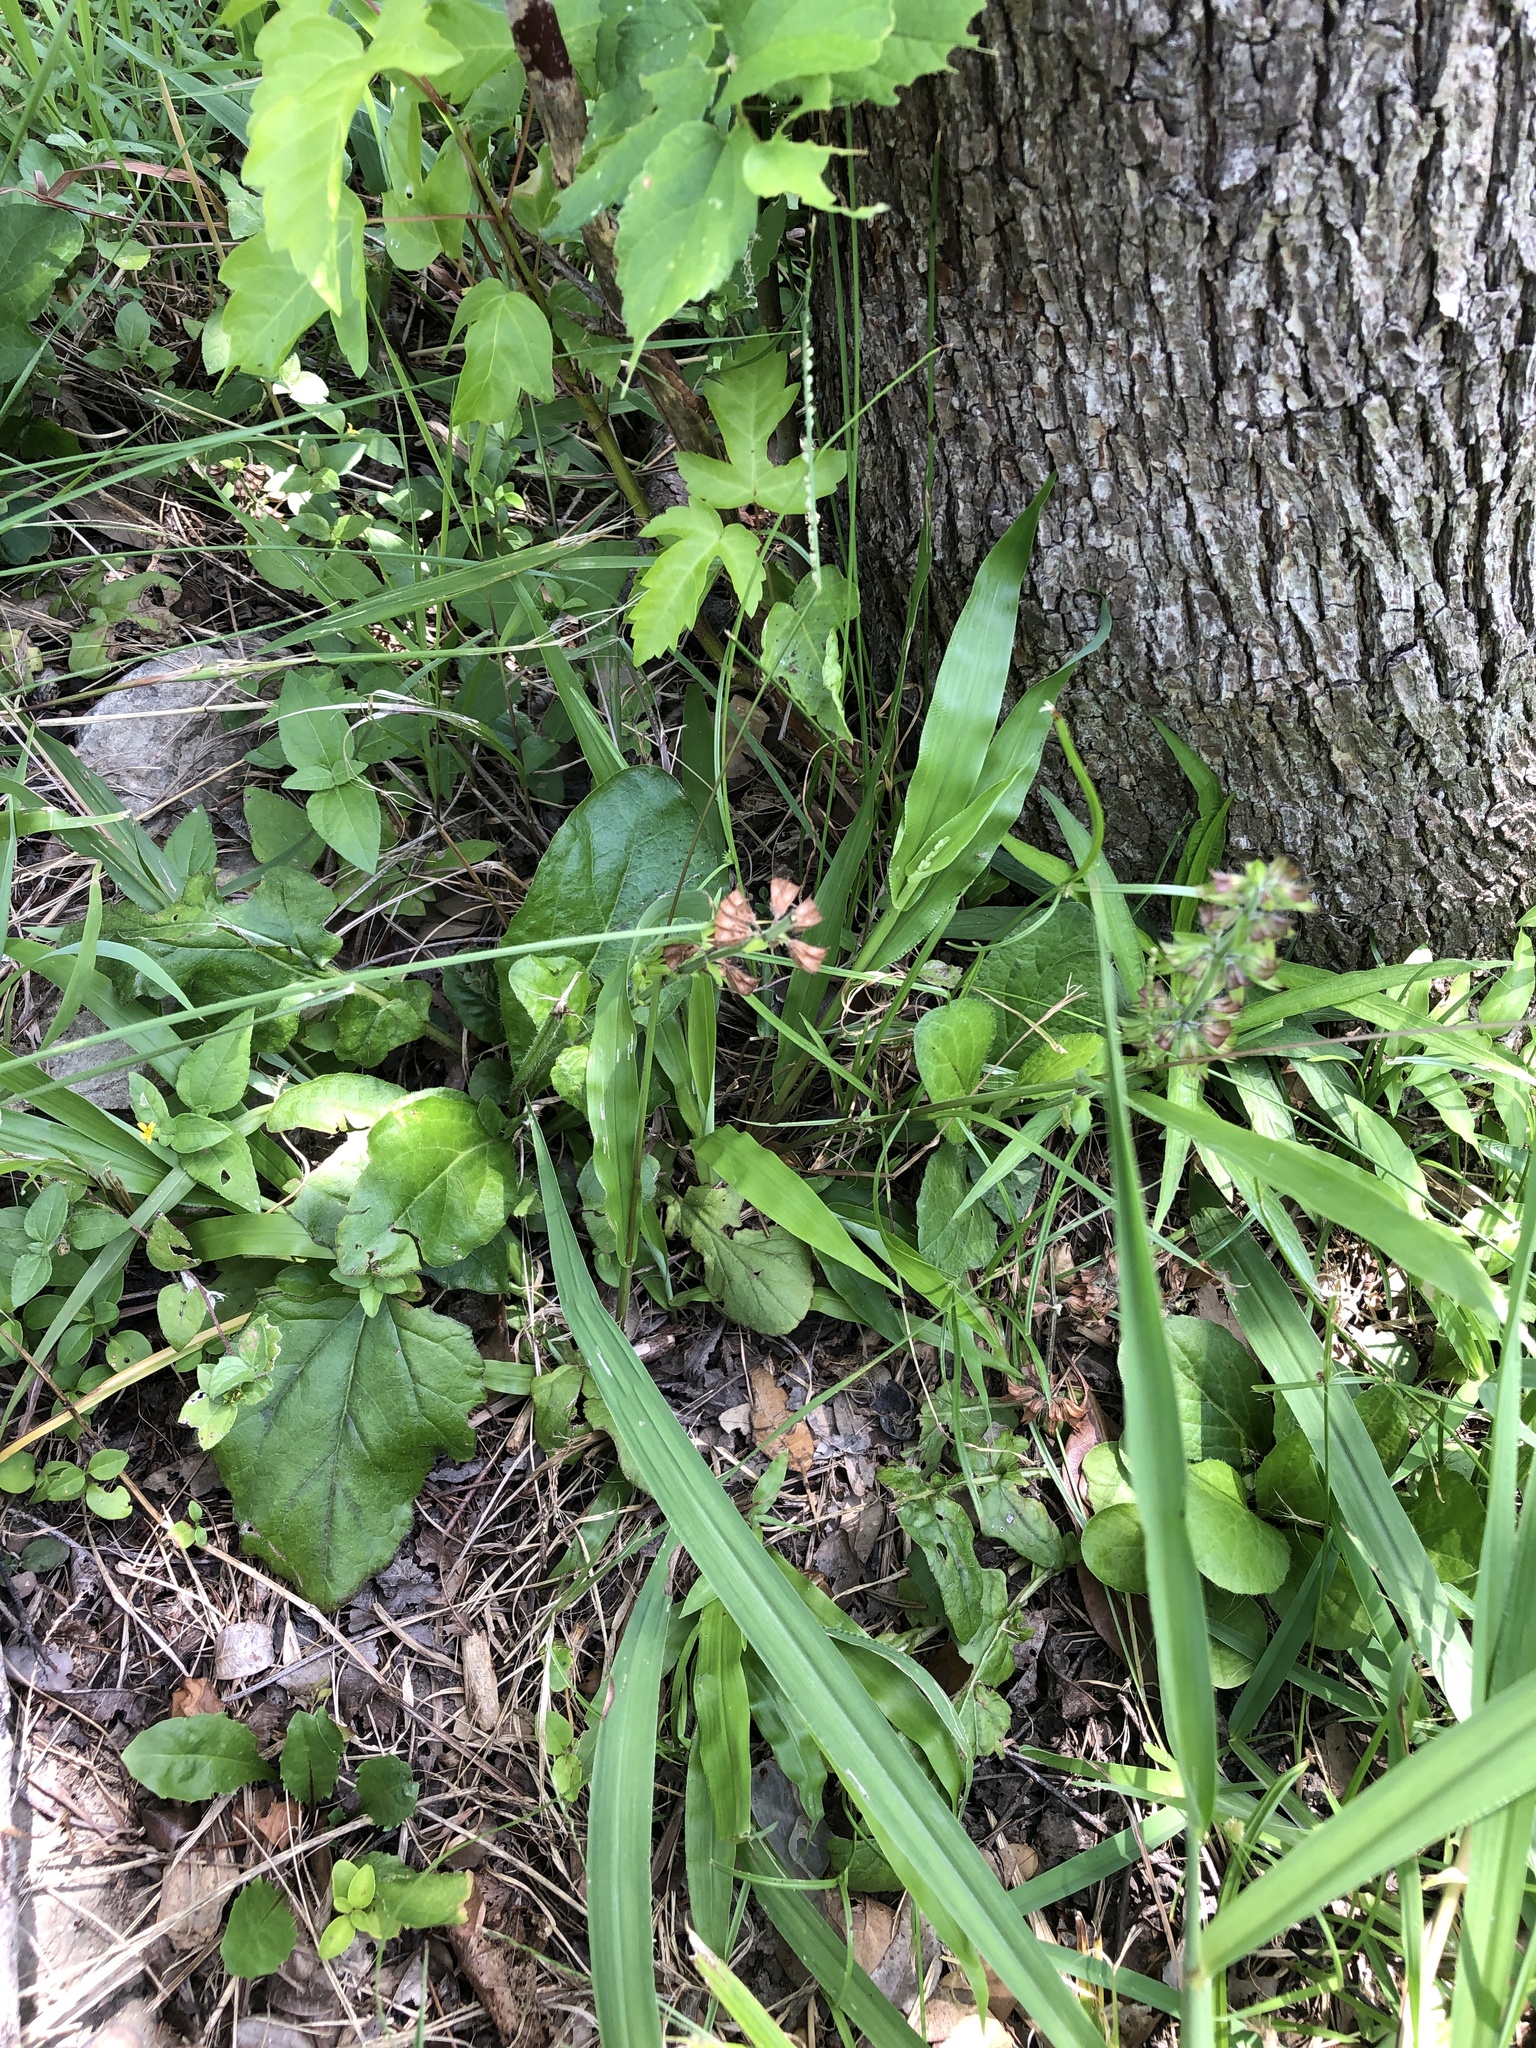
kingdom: Plantae
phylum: Tracheophyta
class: Magnoliopsida
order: Lamiales
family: Lamiaceae
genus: Salvia
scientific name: Salvia lyrata
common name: Cancerweed
